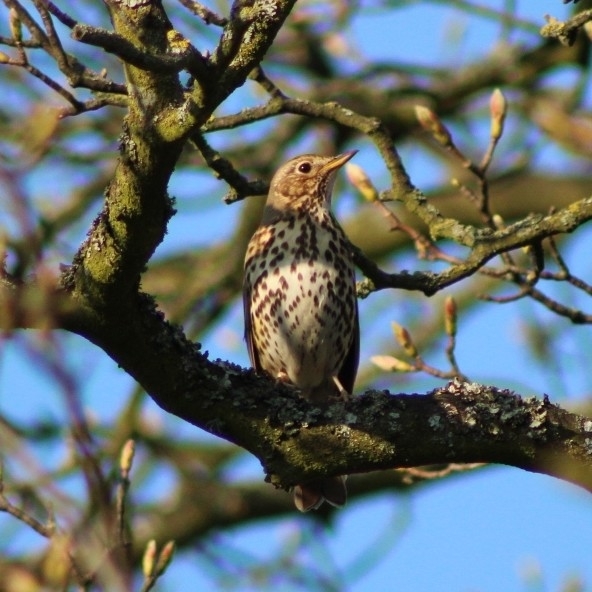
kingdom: Animalia
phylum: Chordata
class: Aves
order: Passeriformes
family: Turdidae
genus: Turdus
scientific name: Turdus philomelos
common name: Song thrush
